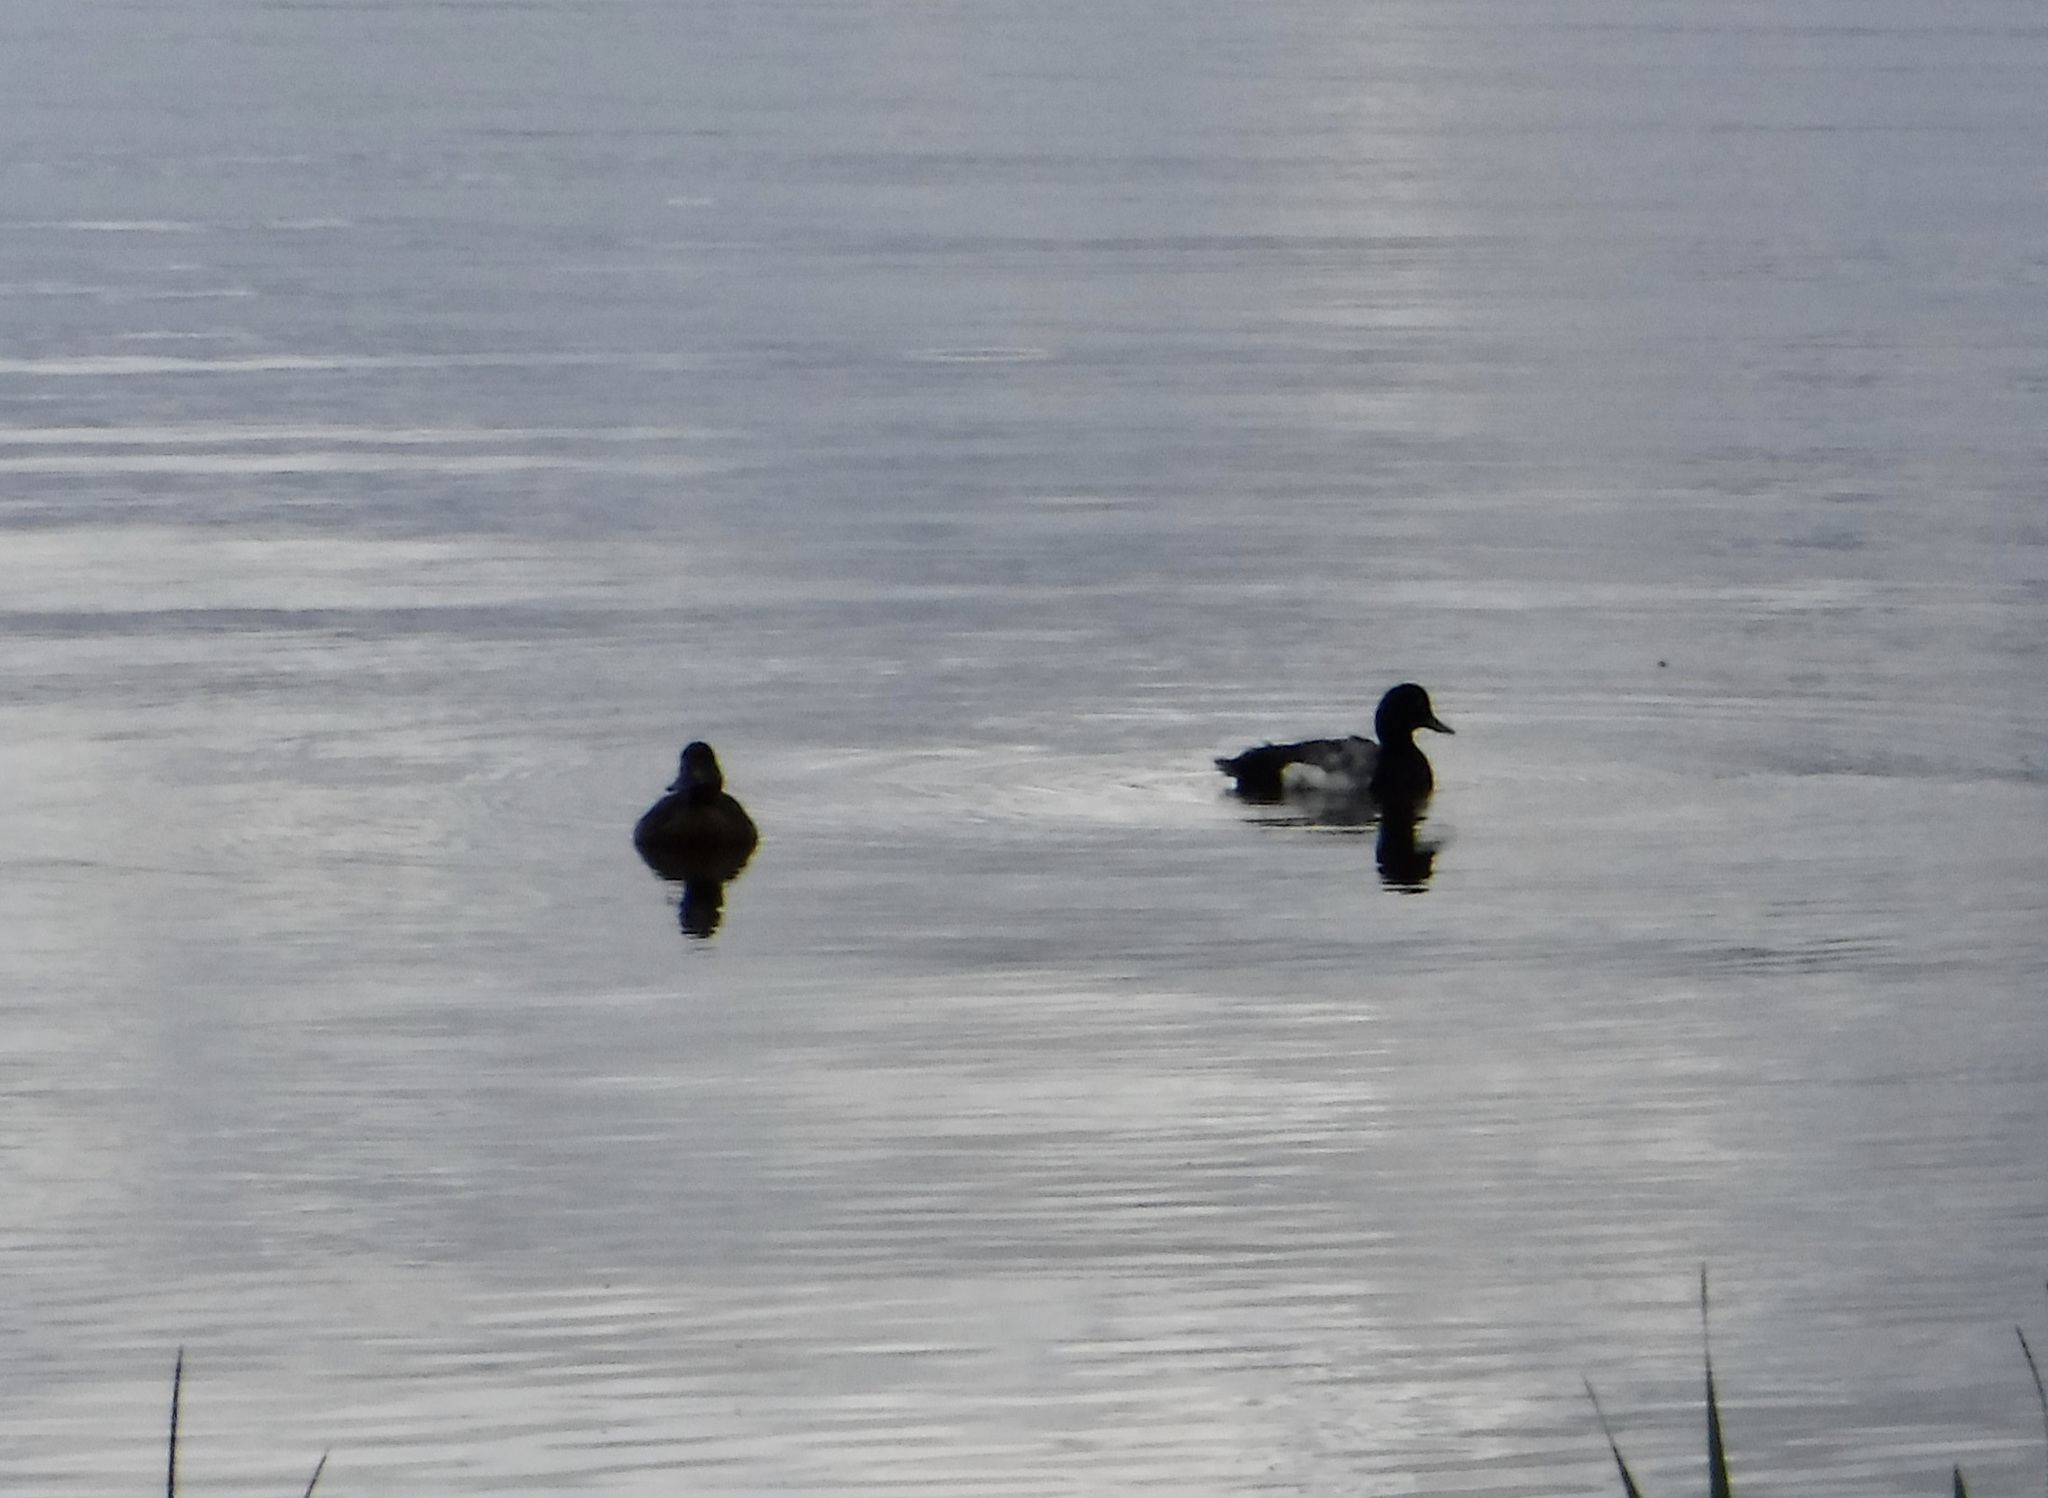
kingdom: Animalia
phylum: Chordata
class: Aves
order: Anseriformes
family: Anatidae
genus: Aythya
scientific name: Aythya marila
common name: Greater scaup
